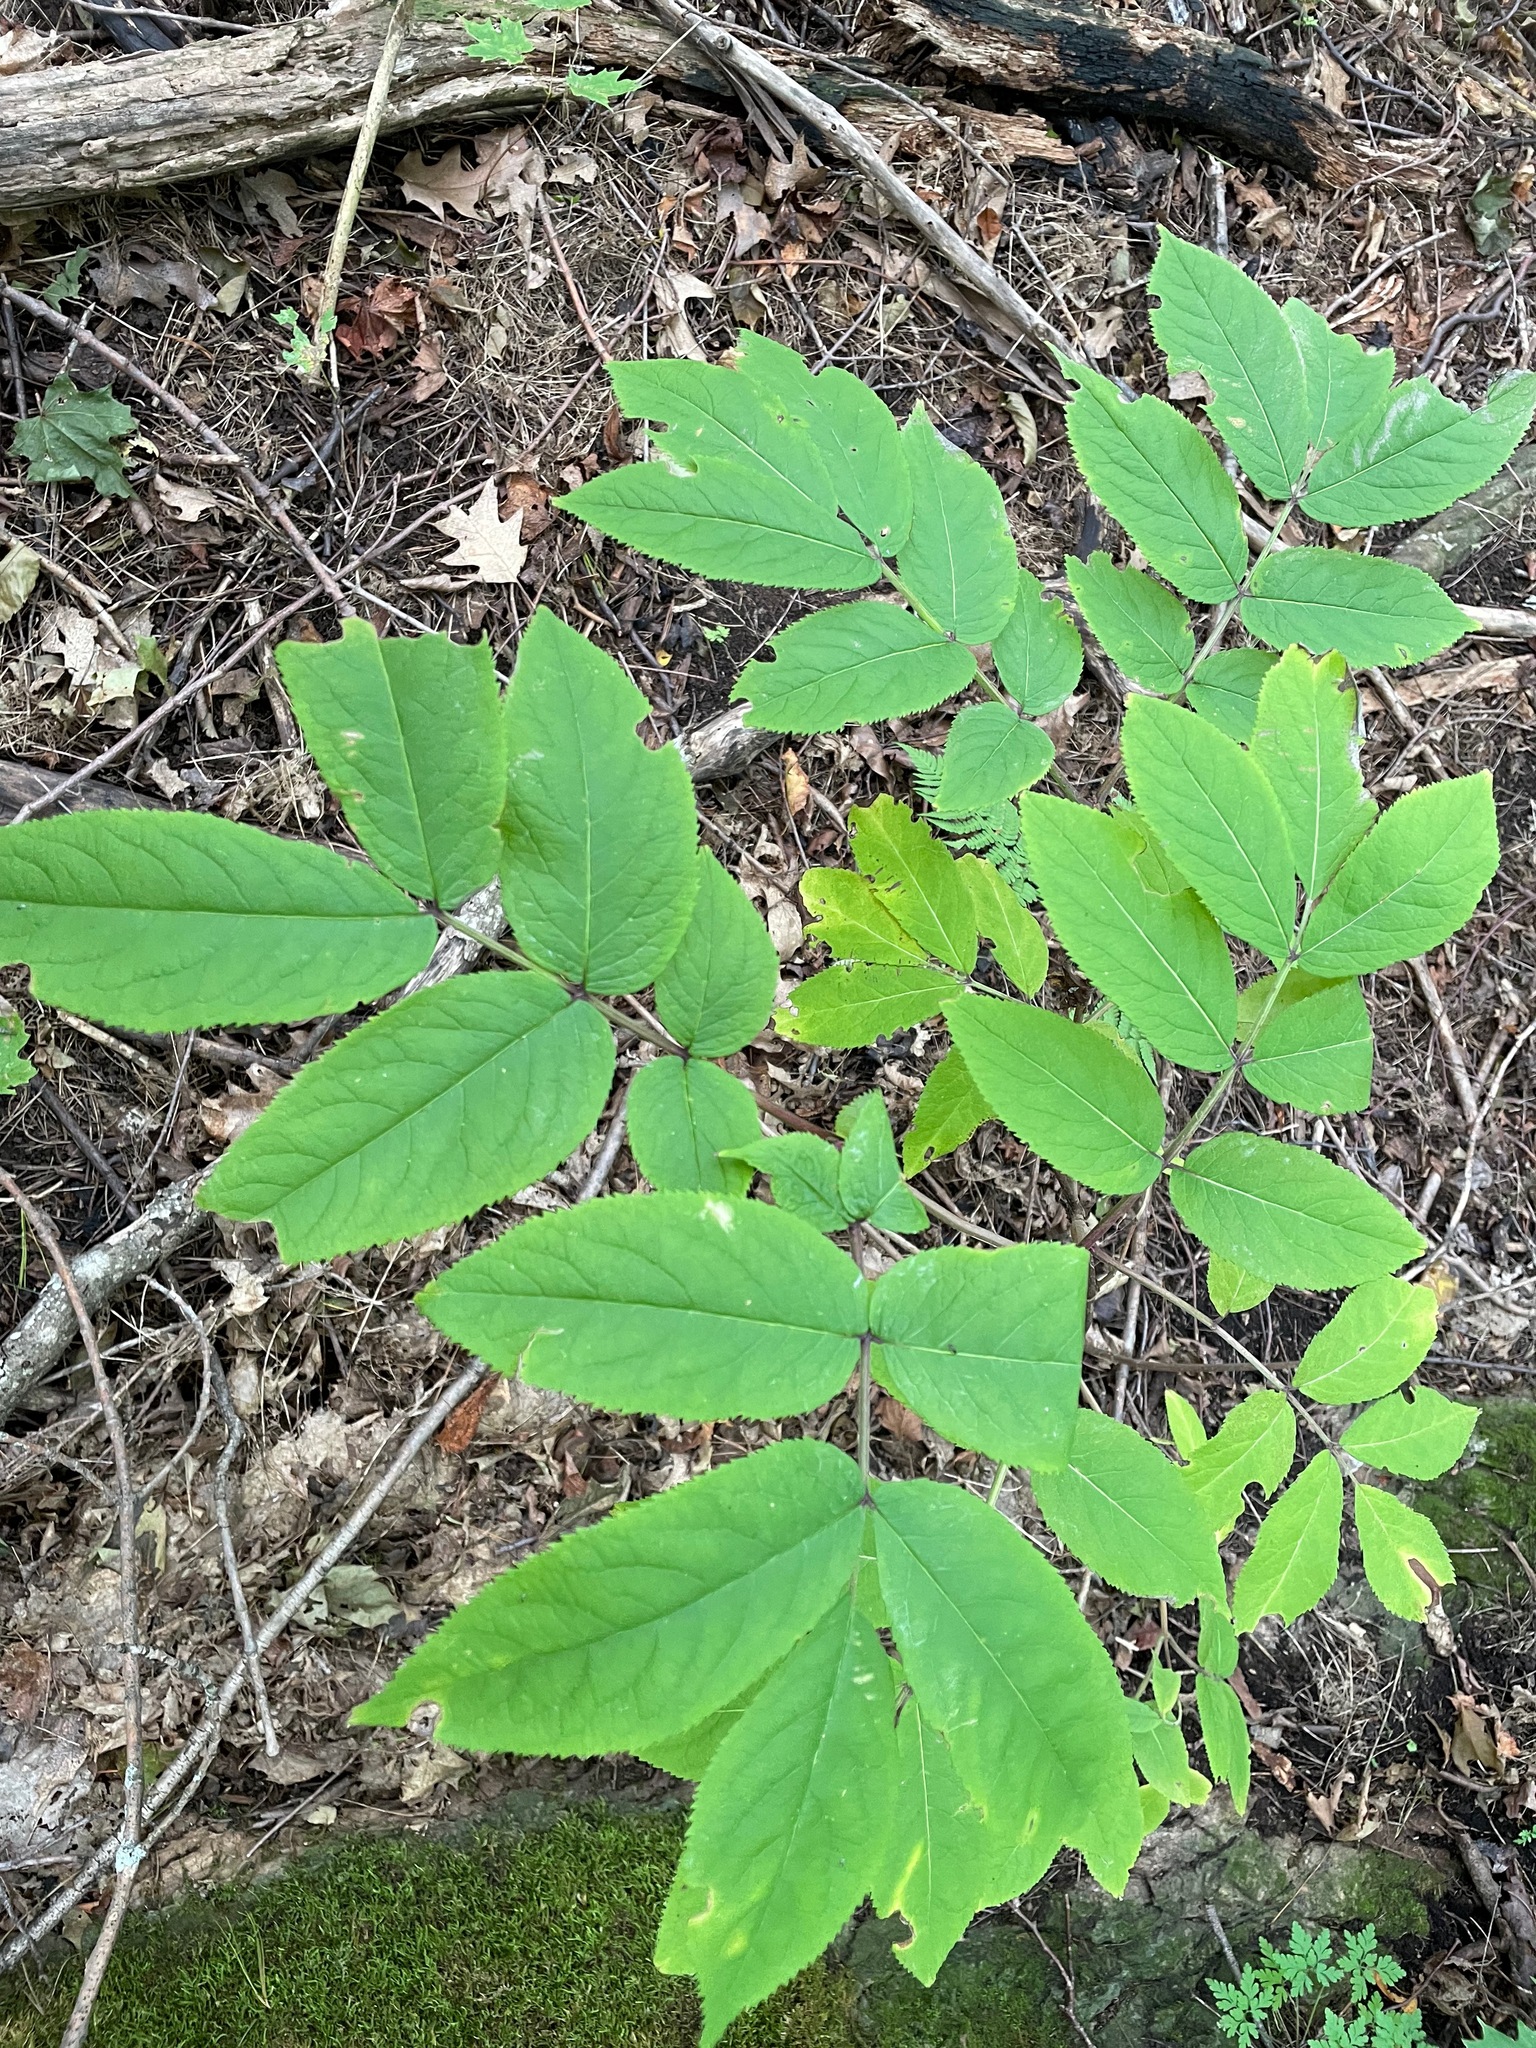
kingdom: Plantae
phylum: Tracheophyta
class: Magnoliopsida
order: Dipsacales
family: Viburnaceae
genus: Sambucus
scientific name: Sambucus racemosa
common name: Red-berried elder
